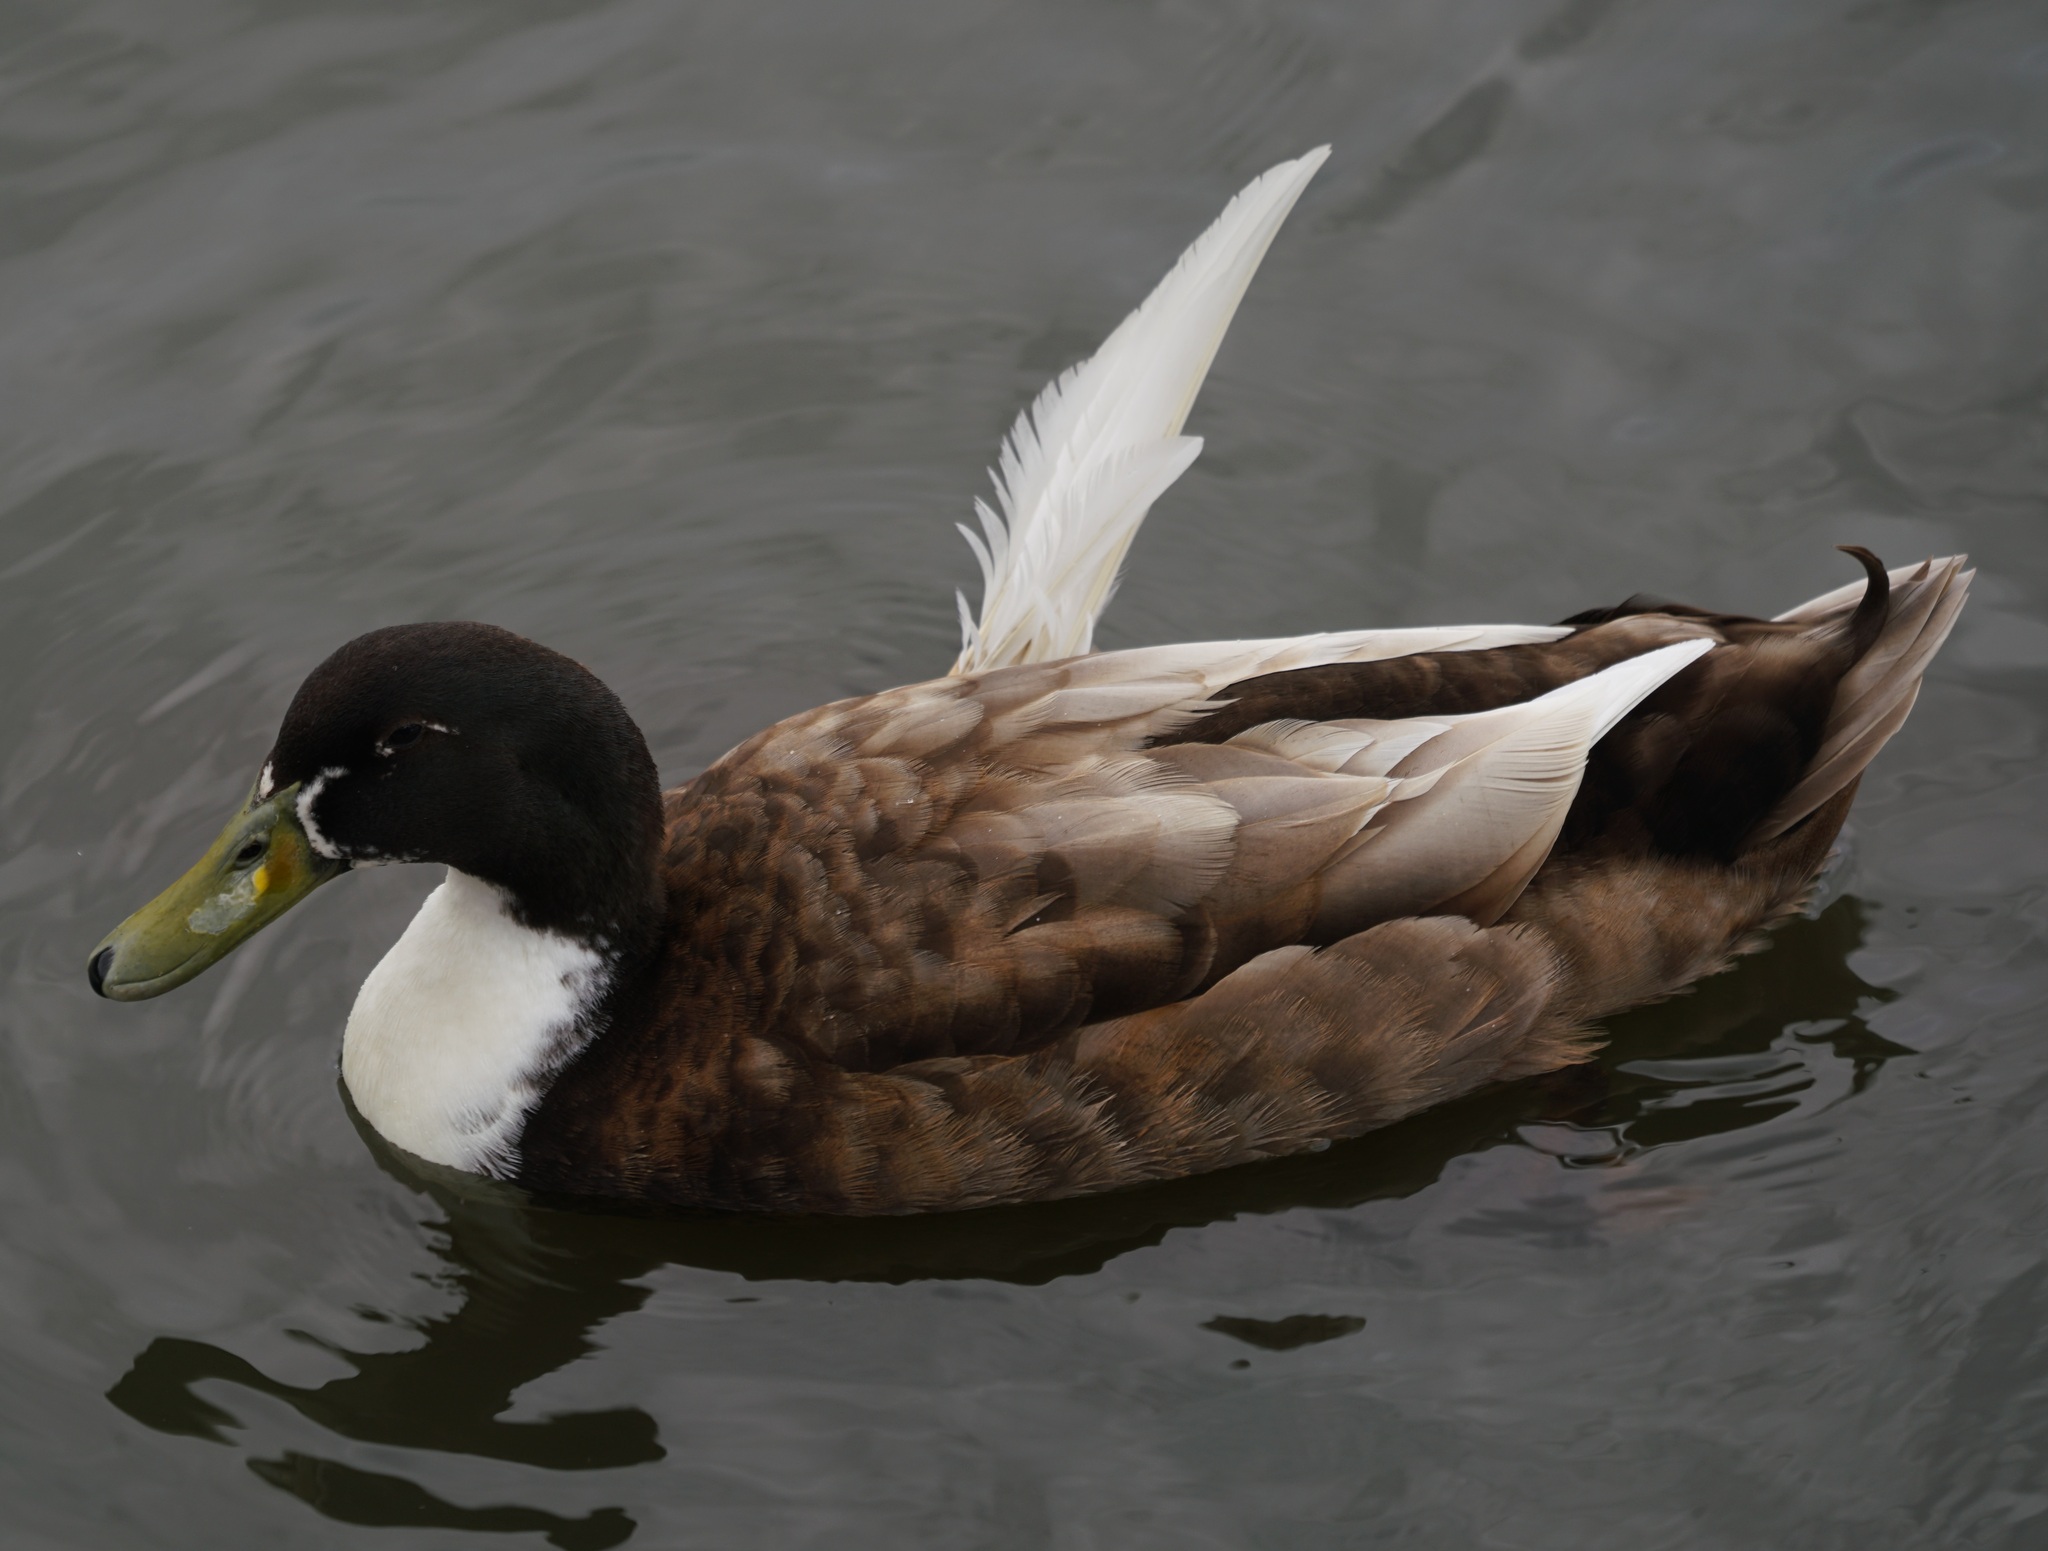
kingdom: Animalia
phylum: Chordata
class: Aves
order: Anseriformes
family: Anatidae
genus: Anas
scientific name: Anas platyrhynchos
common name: Mallard
